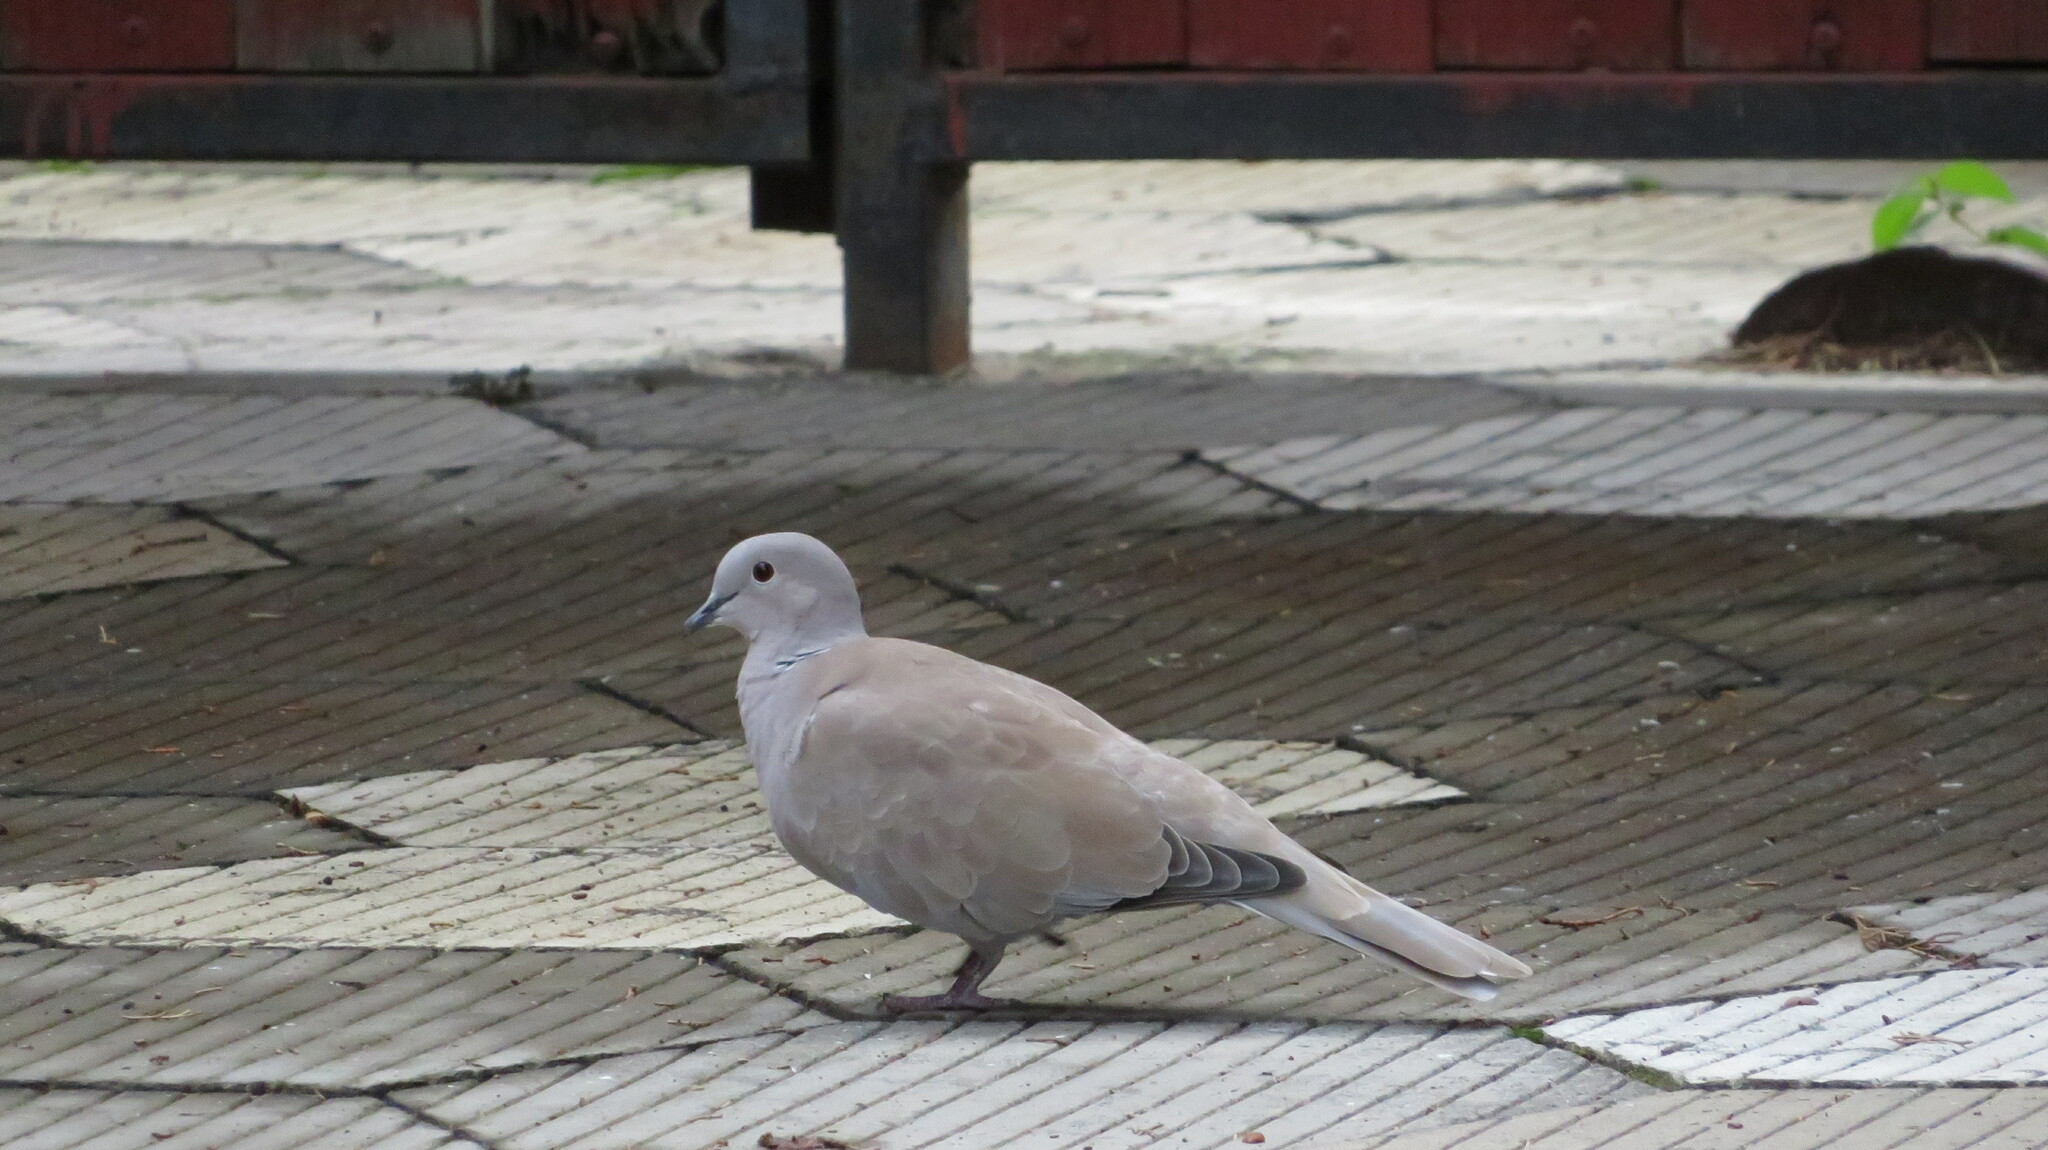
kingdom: Animalia
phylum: Chordata
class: Aves
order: Columbiformes
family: Columbidae
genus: Streptopelia
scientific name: Streptopelia decaocto
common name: Eurasian collared dove
